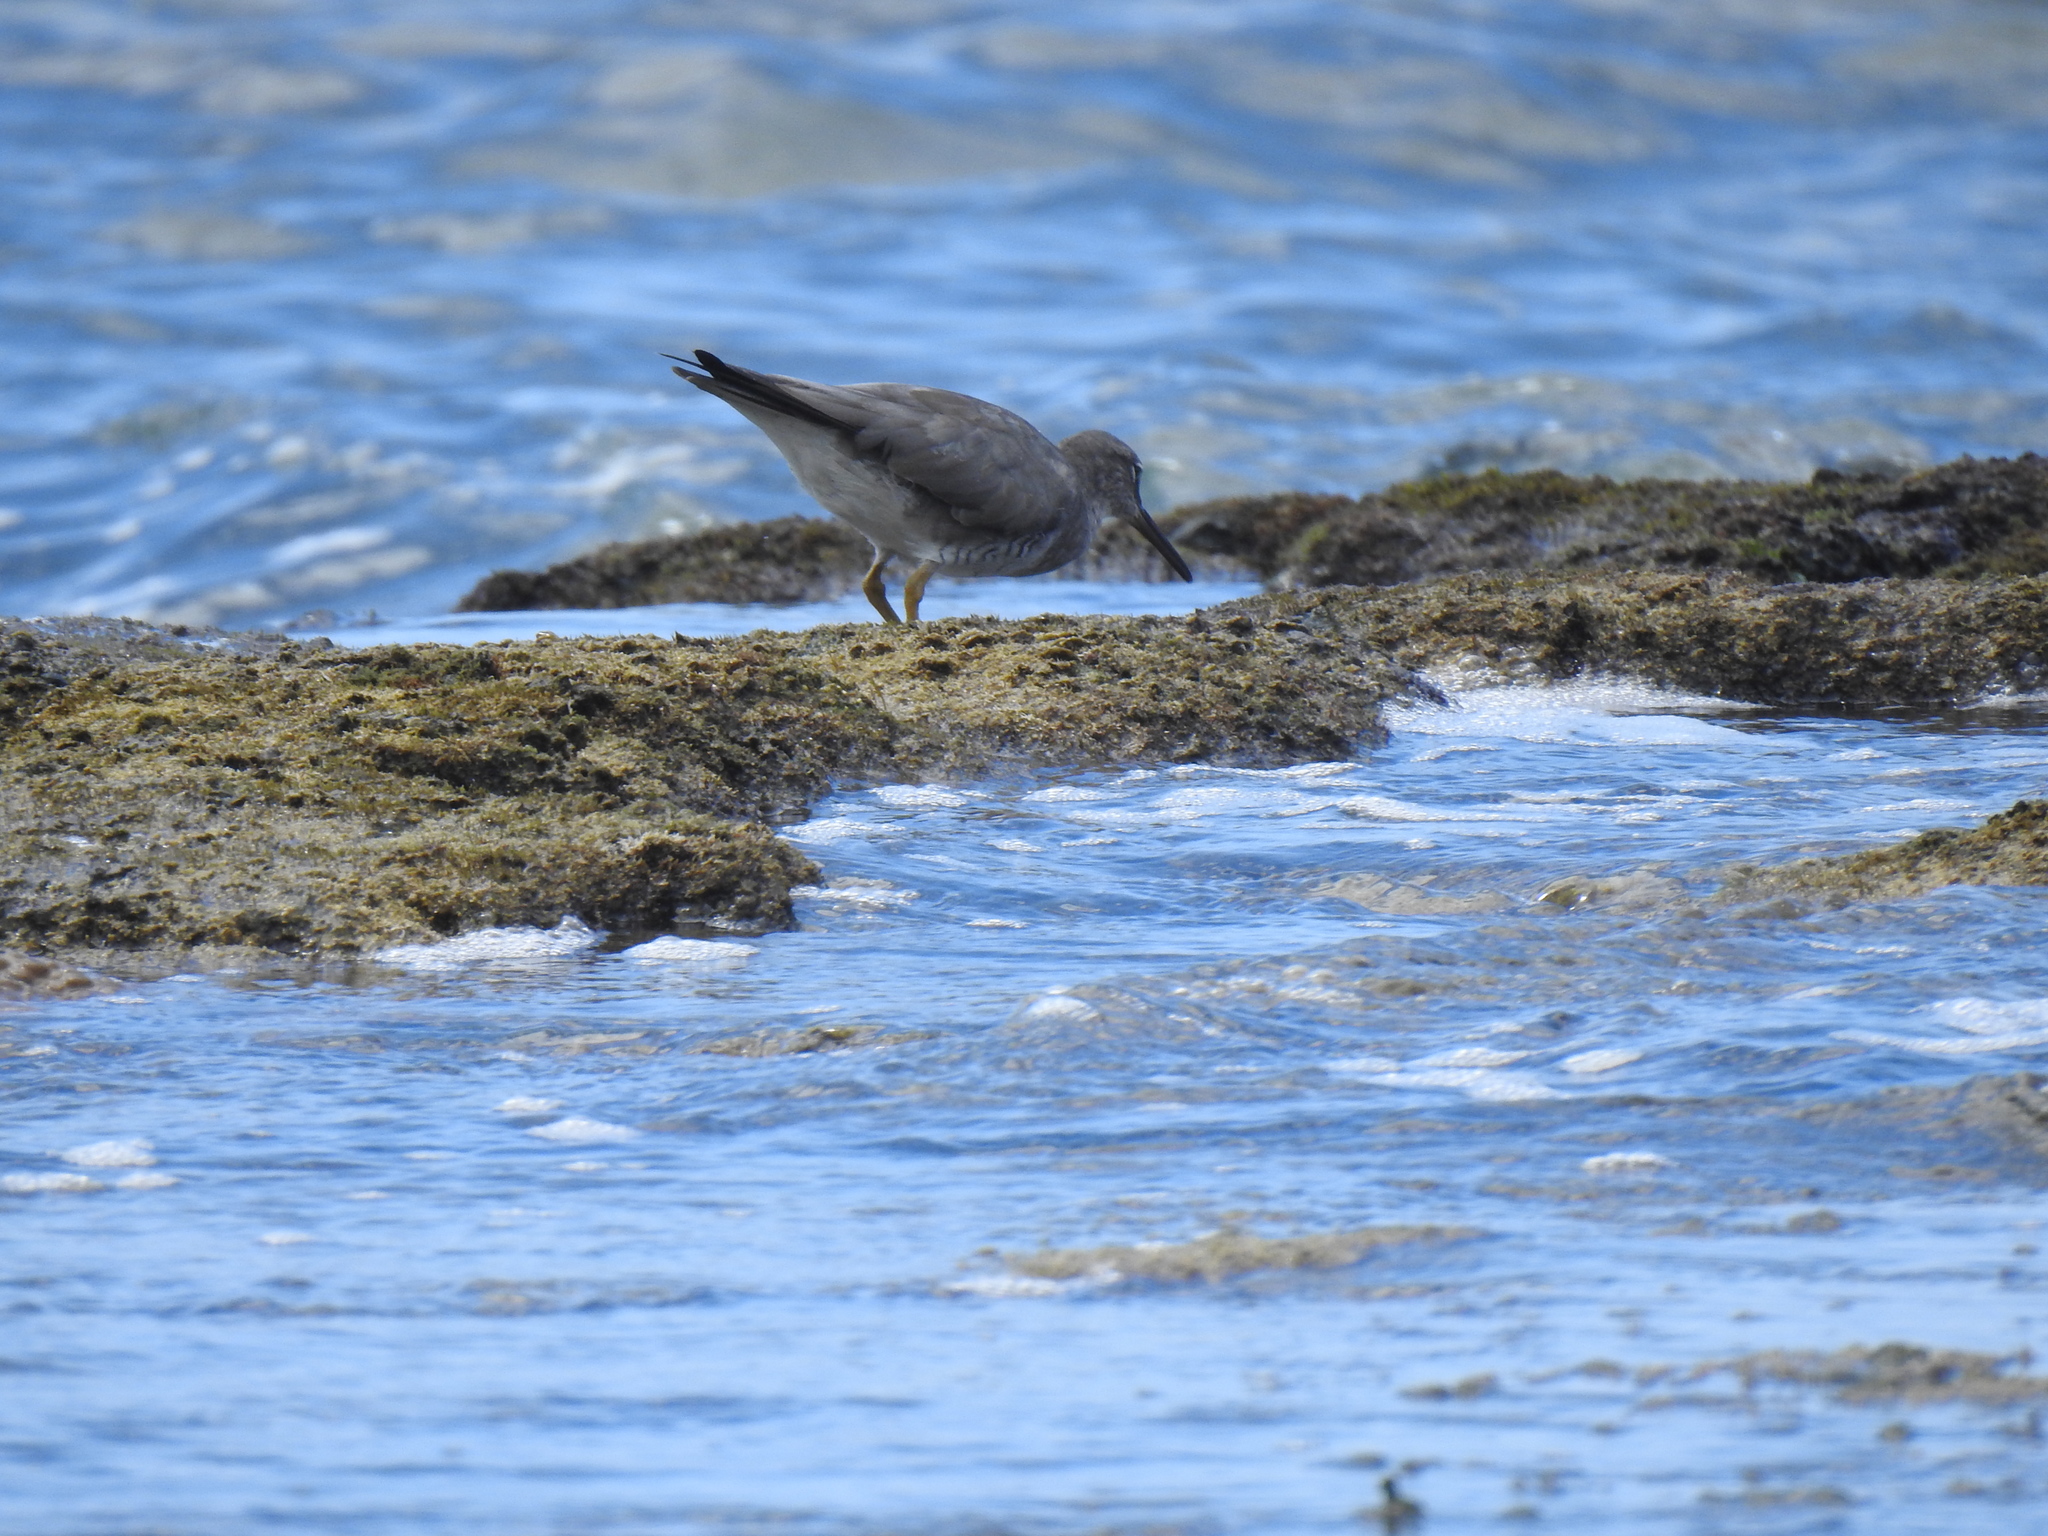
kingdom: Animalia
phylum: Chordata
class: Aves
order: Charadriiformes
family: Scolopacidae
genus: Tringa
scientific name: Tringa incana
